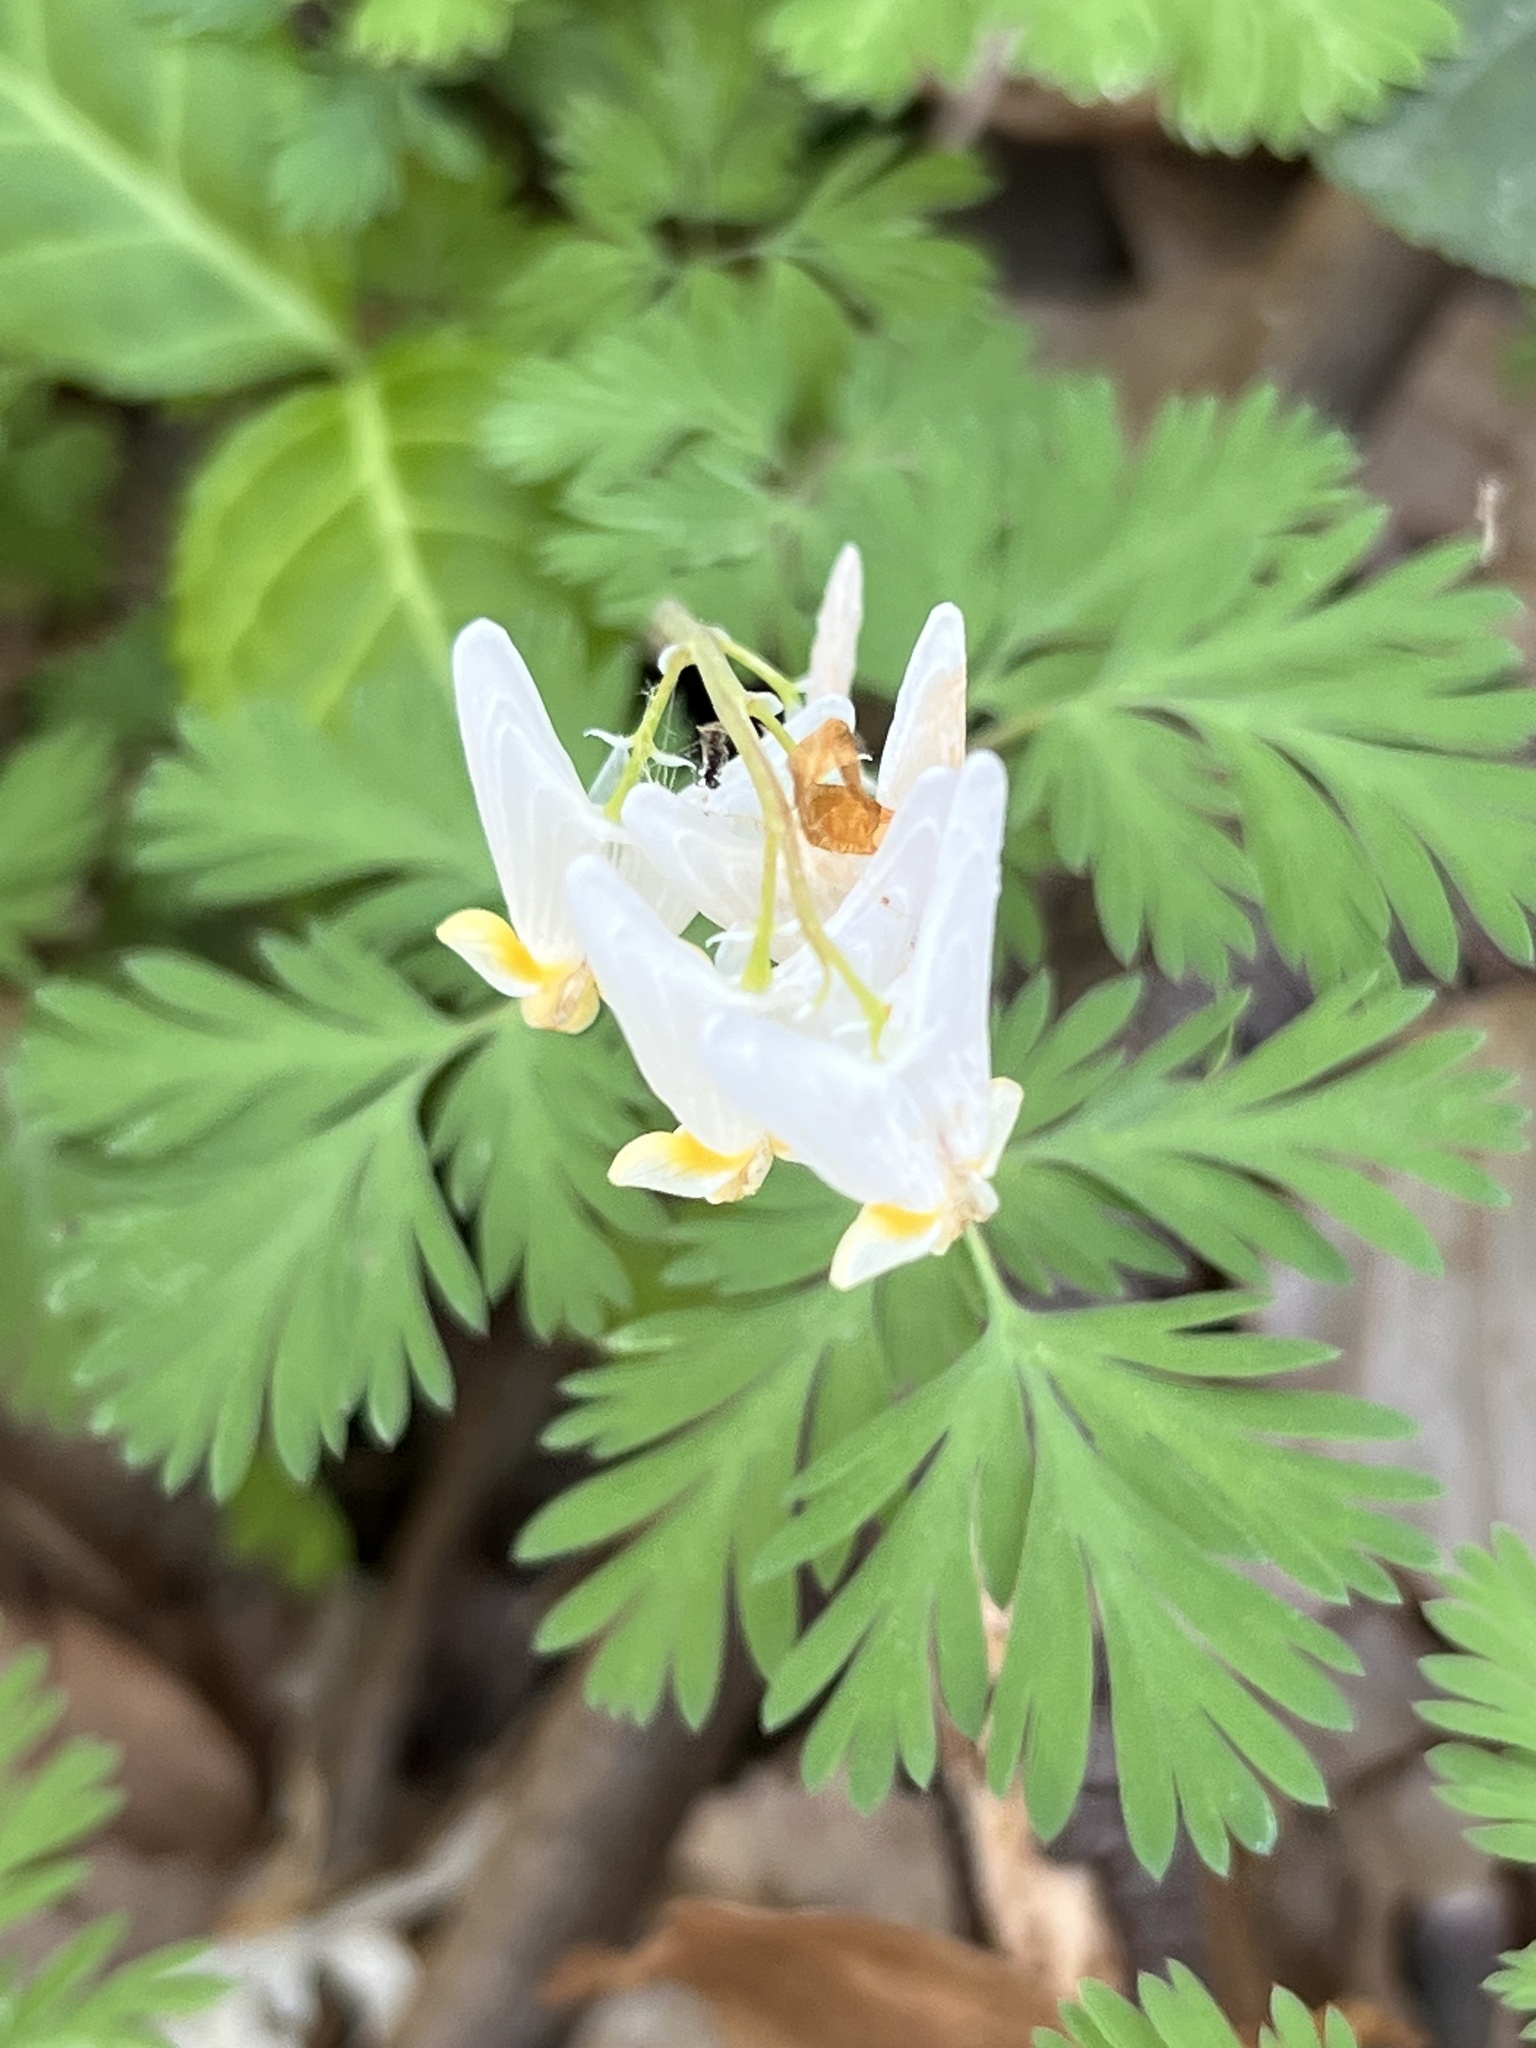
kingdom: Plantae
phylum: Tracheophyta
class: Magnoliopsida
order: Ranunculales
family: Papaveraceae
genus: Dicentra
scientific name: Dicentra cucullaria
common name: Dutchman's breeches
